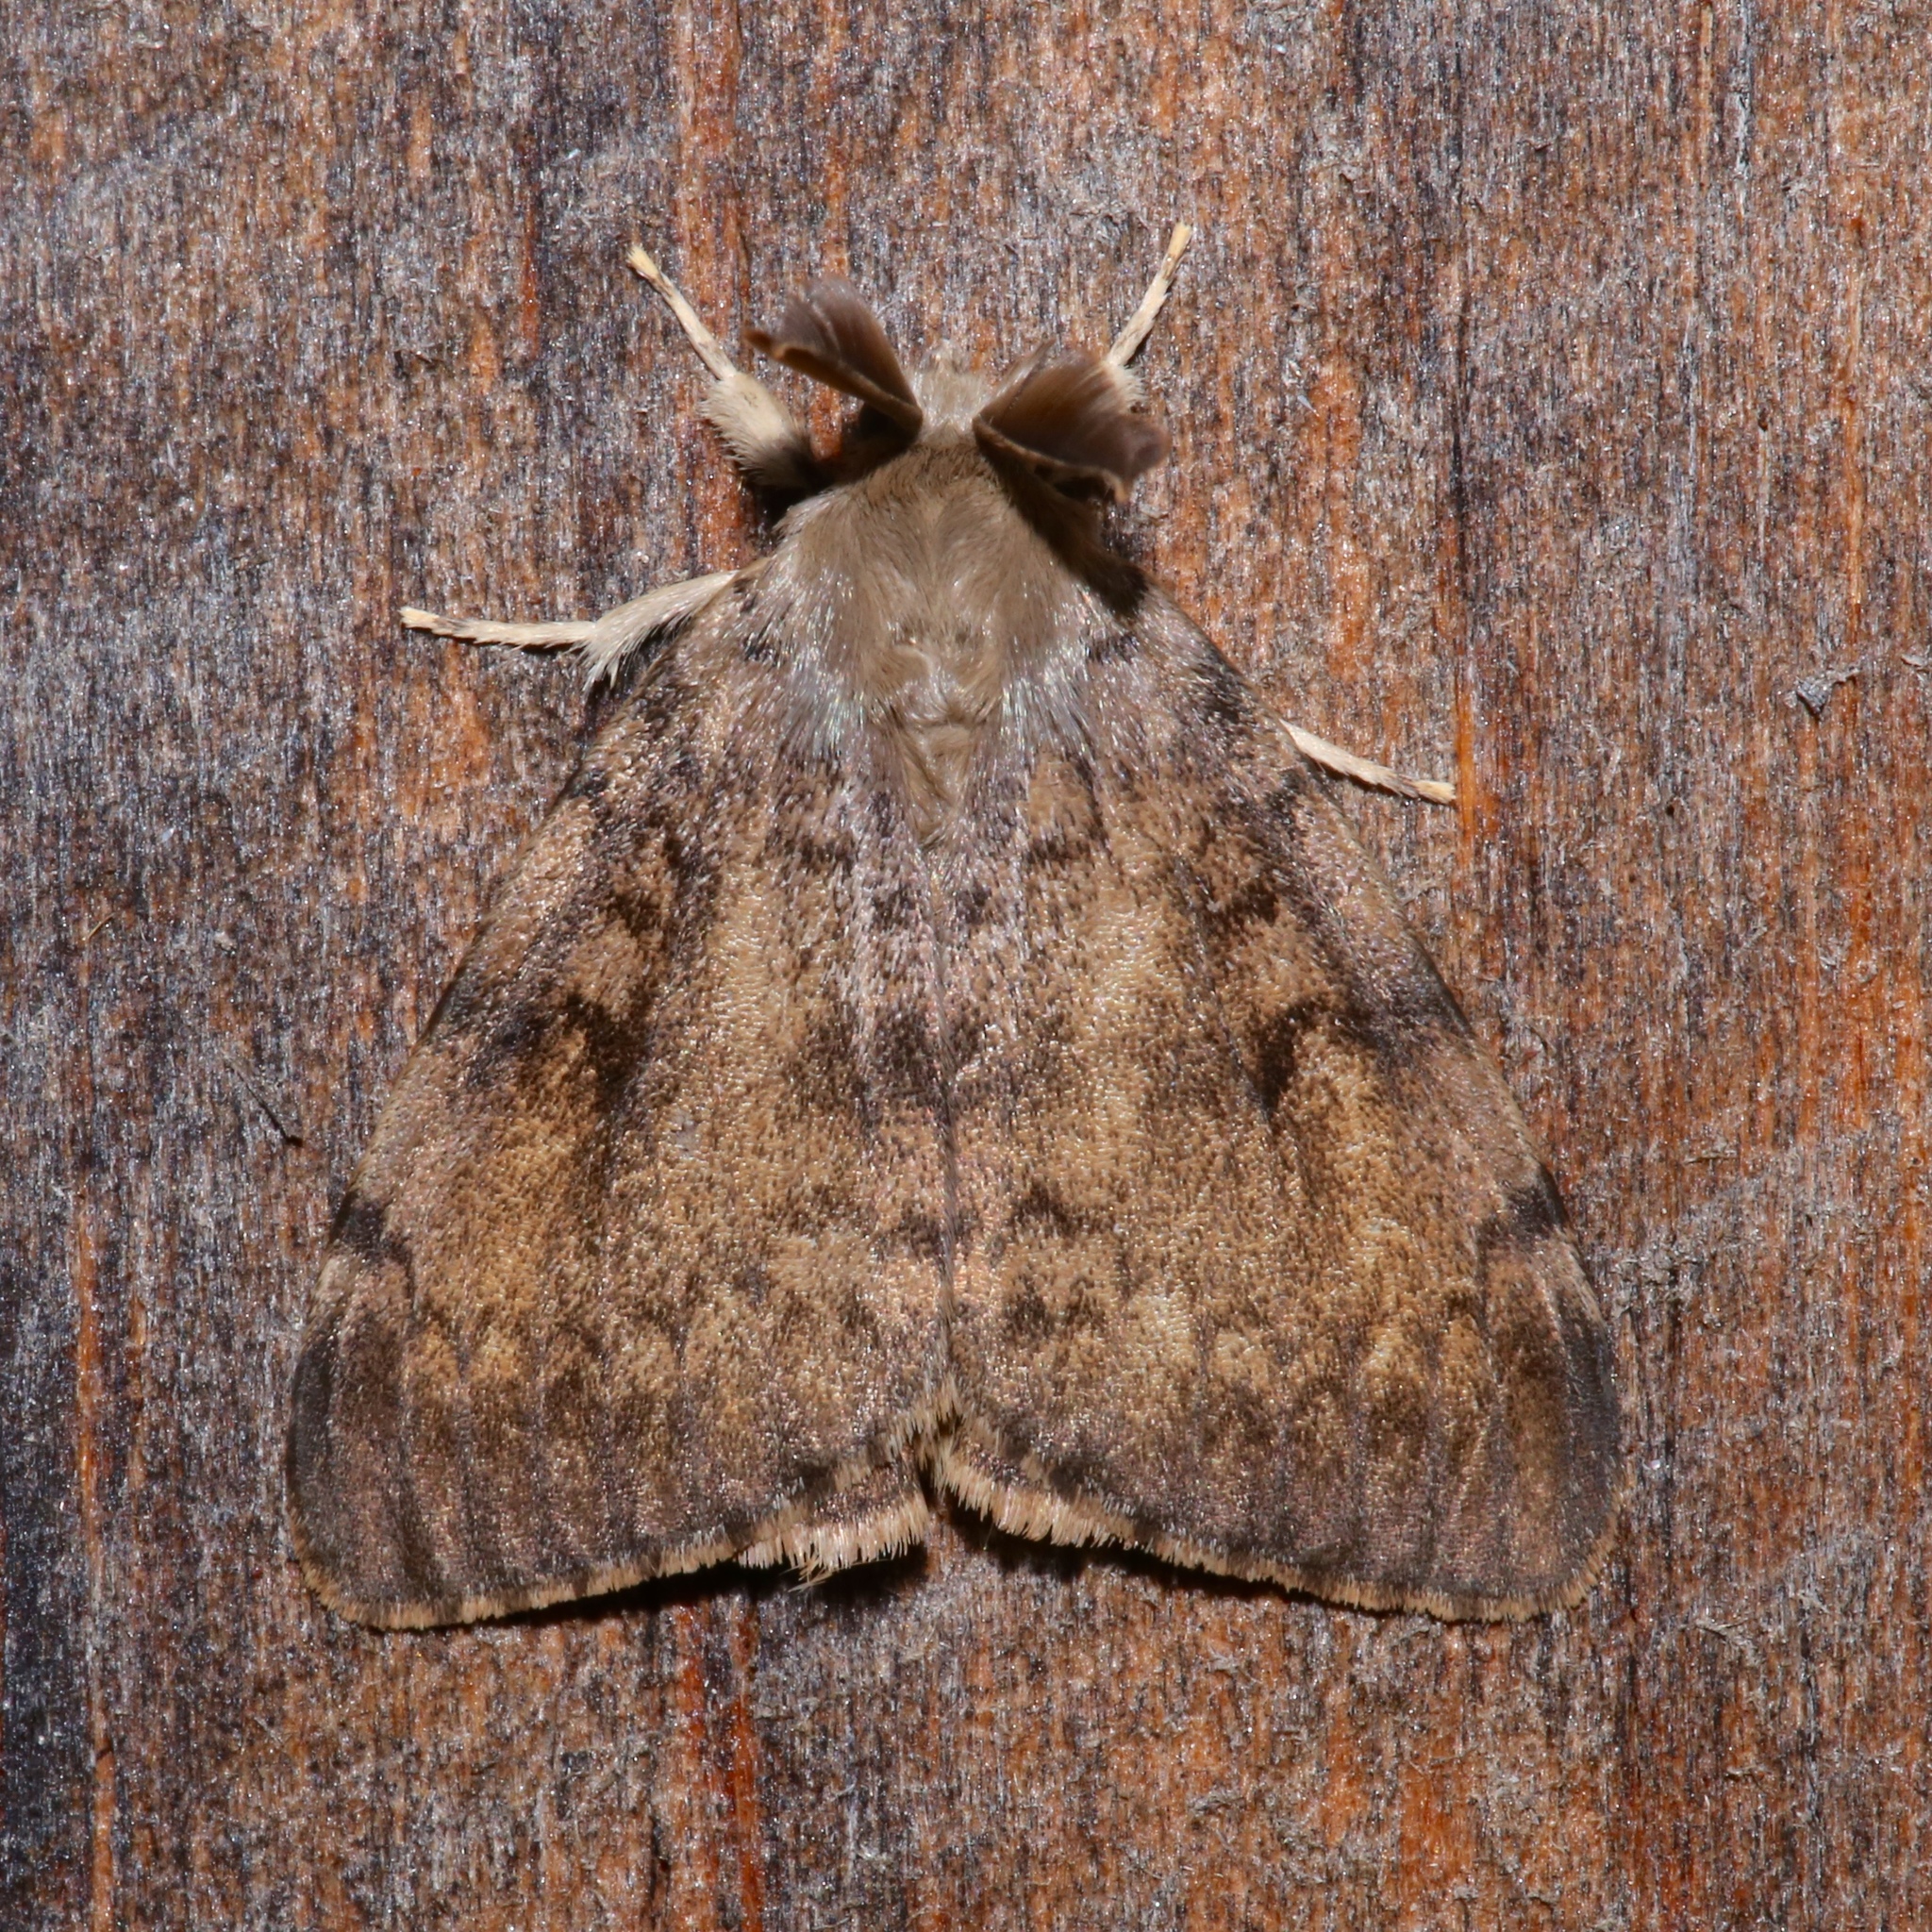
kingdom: Animalia
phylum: Arthropoda
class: Insecta
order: Lepidoptera
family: Erebidae
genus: Lymantria
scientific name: Lymantria dispar
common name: Gypsy moth
